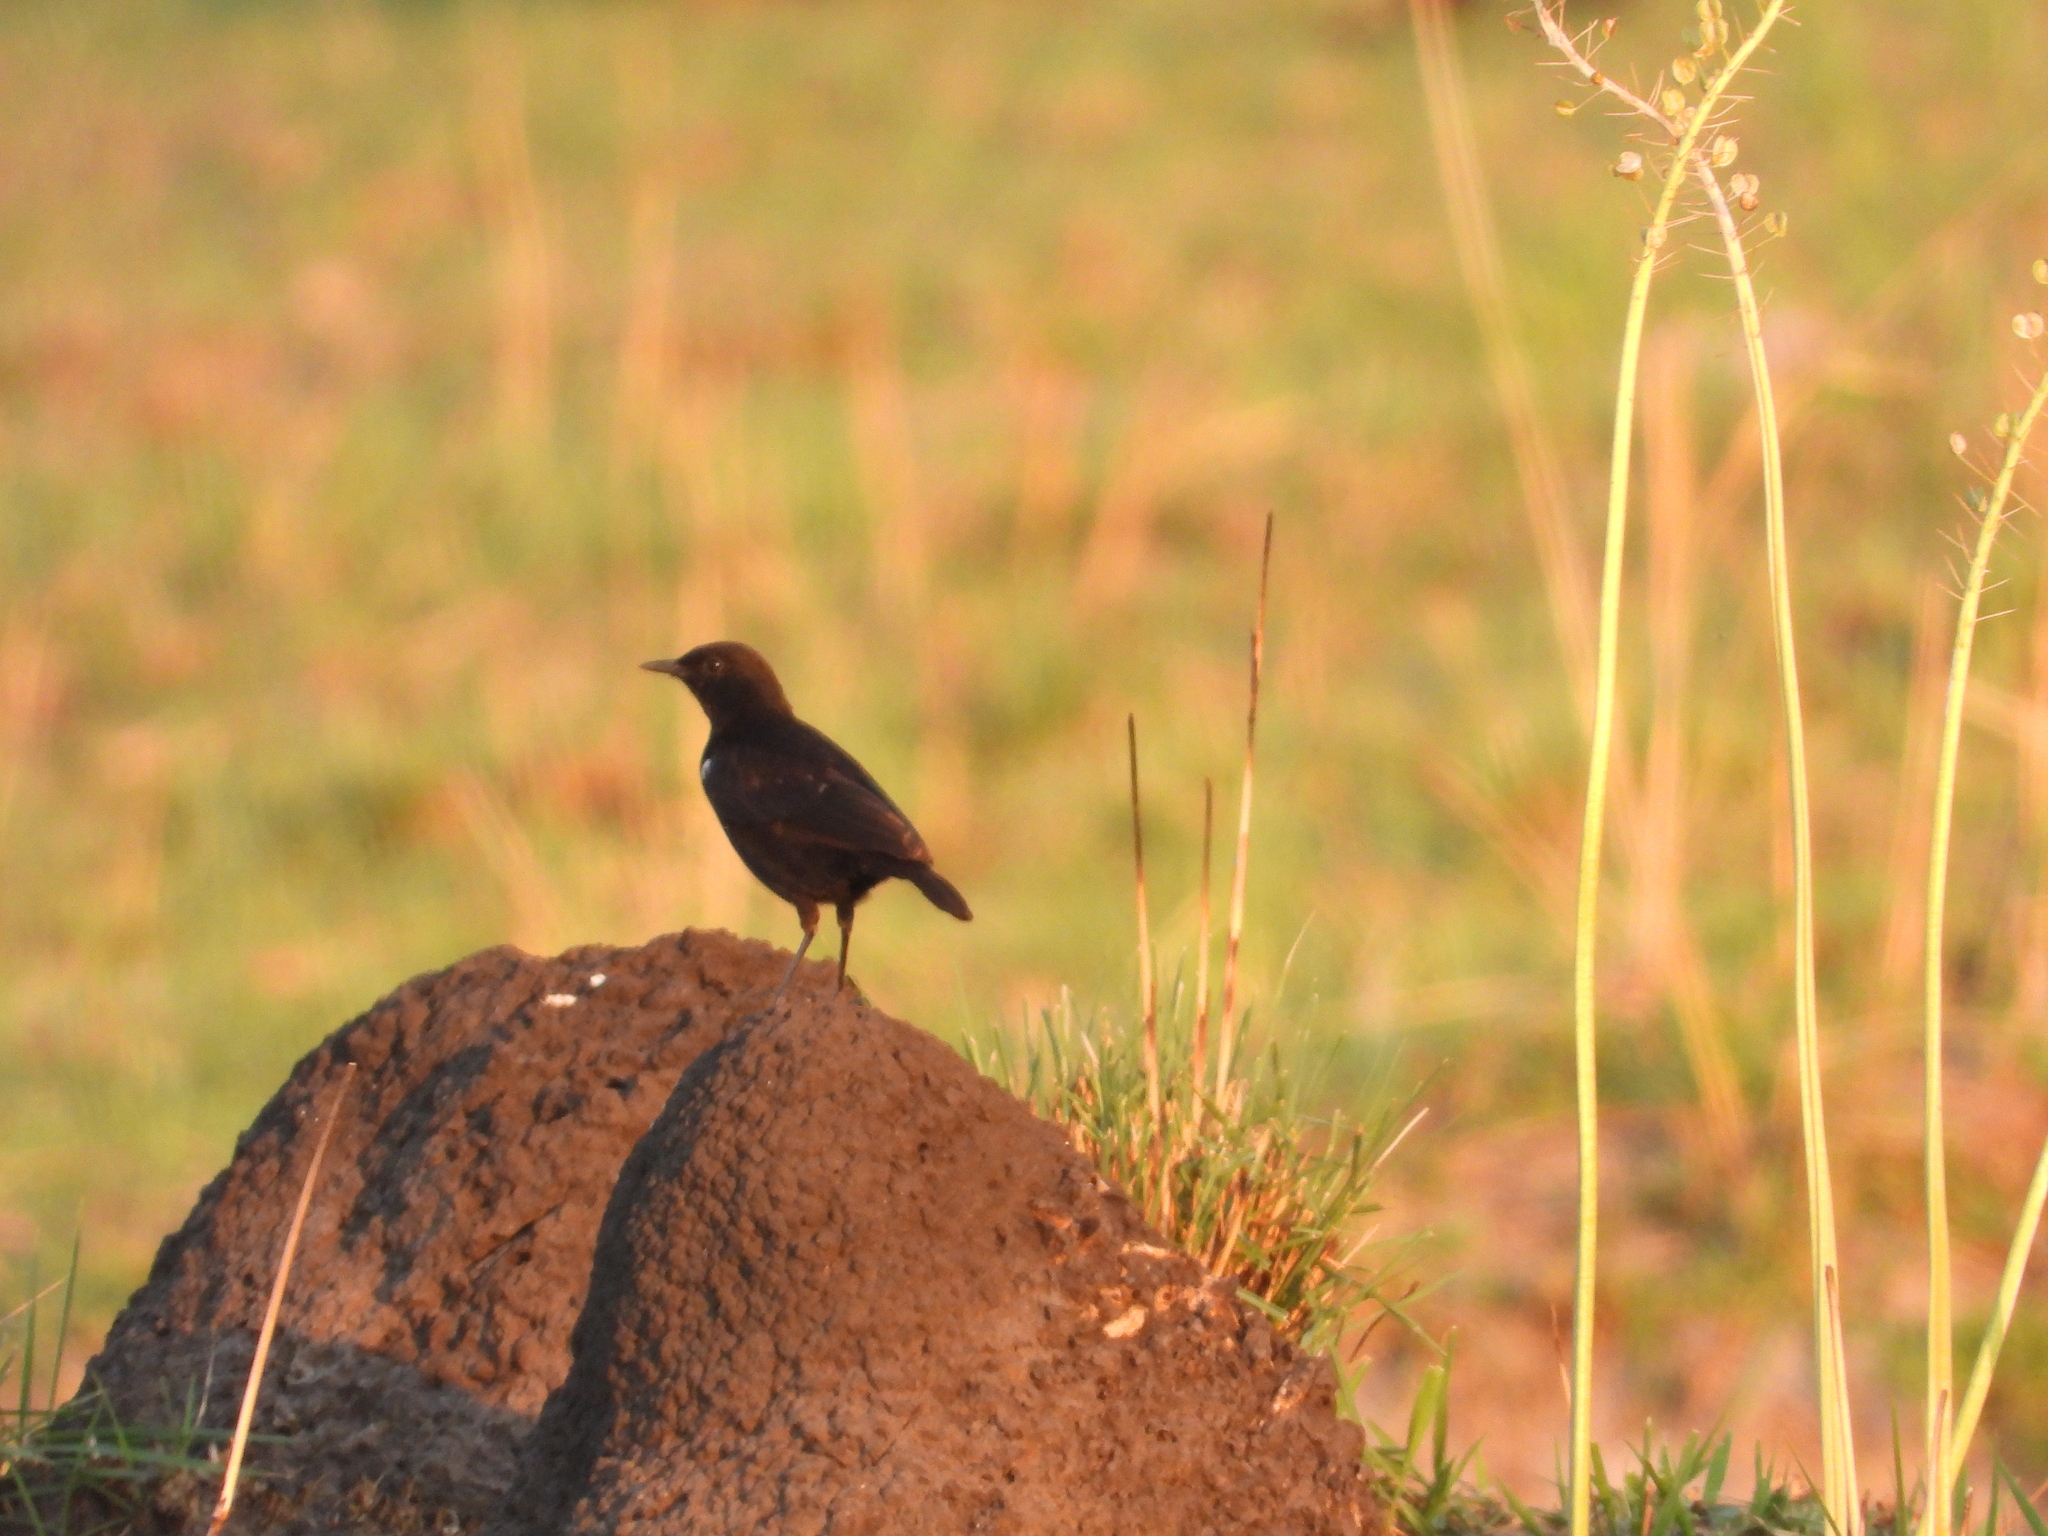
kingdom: Animalia
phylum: Chordata
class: Aves
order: Passeriformes
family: Muscicapidae
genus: Myrmecocichla
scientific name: Myrmecocichla nigra
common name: Sooty chat
